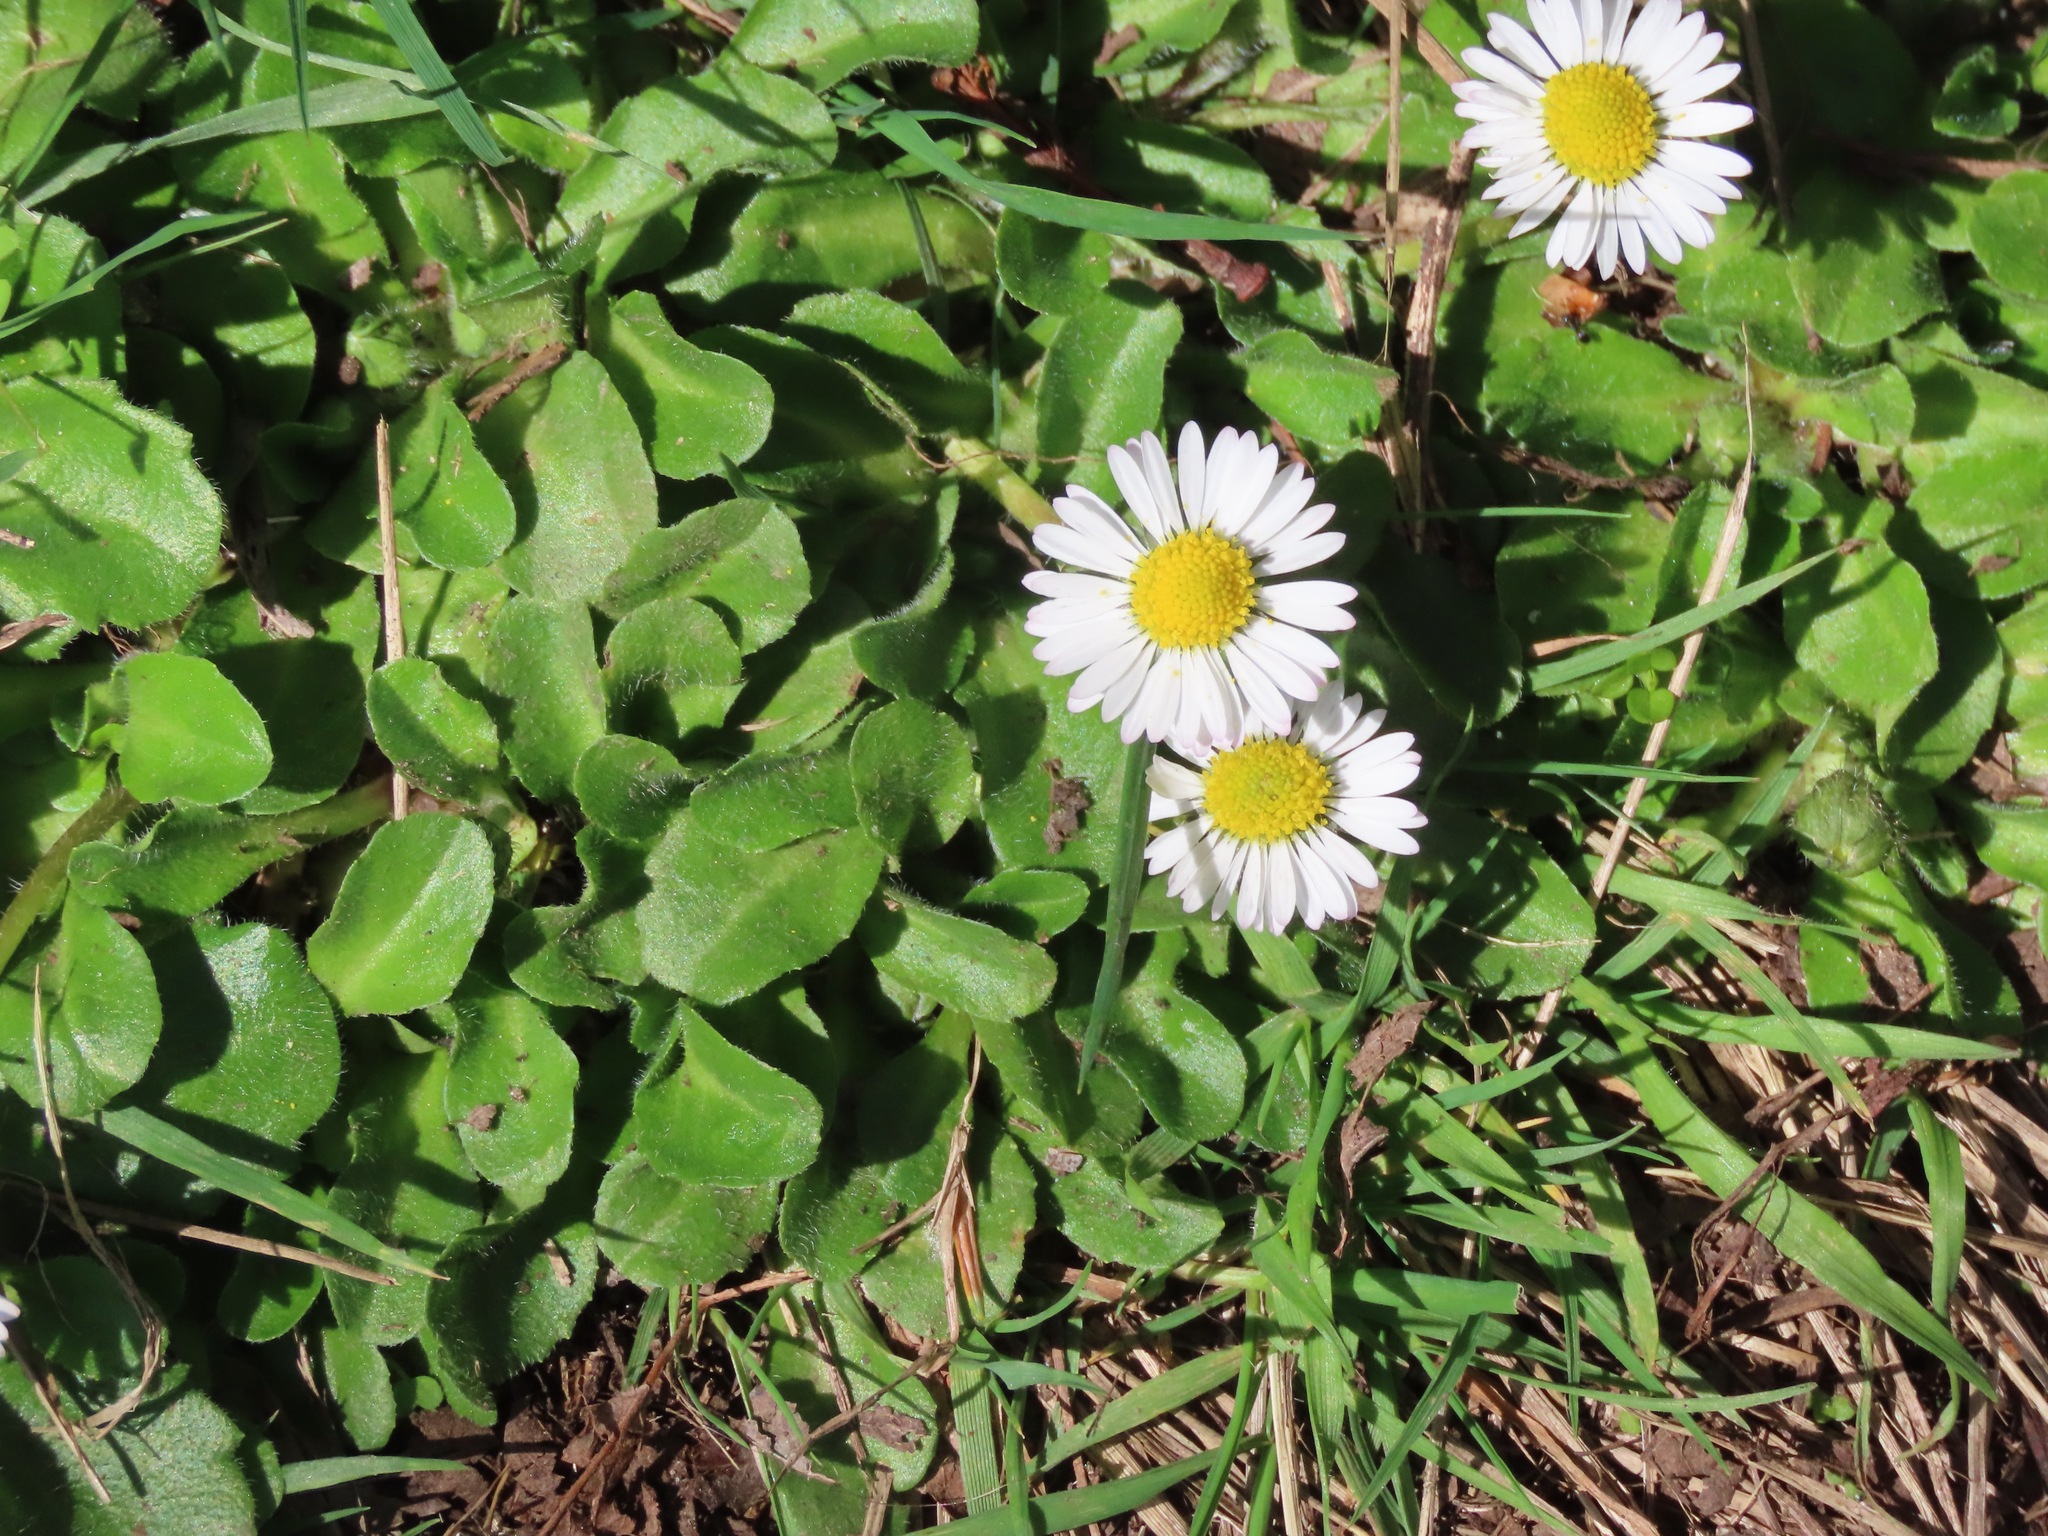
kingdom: Plantae
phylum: Tracheophyta
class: Magnoliopsida
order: Asterales
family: Asteraceae
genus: Bellis
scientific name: Bellis perennis
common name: Lawndaisy
